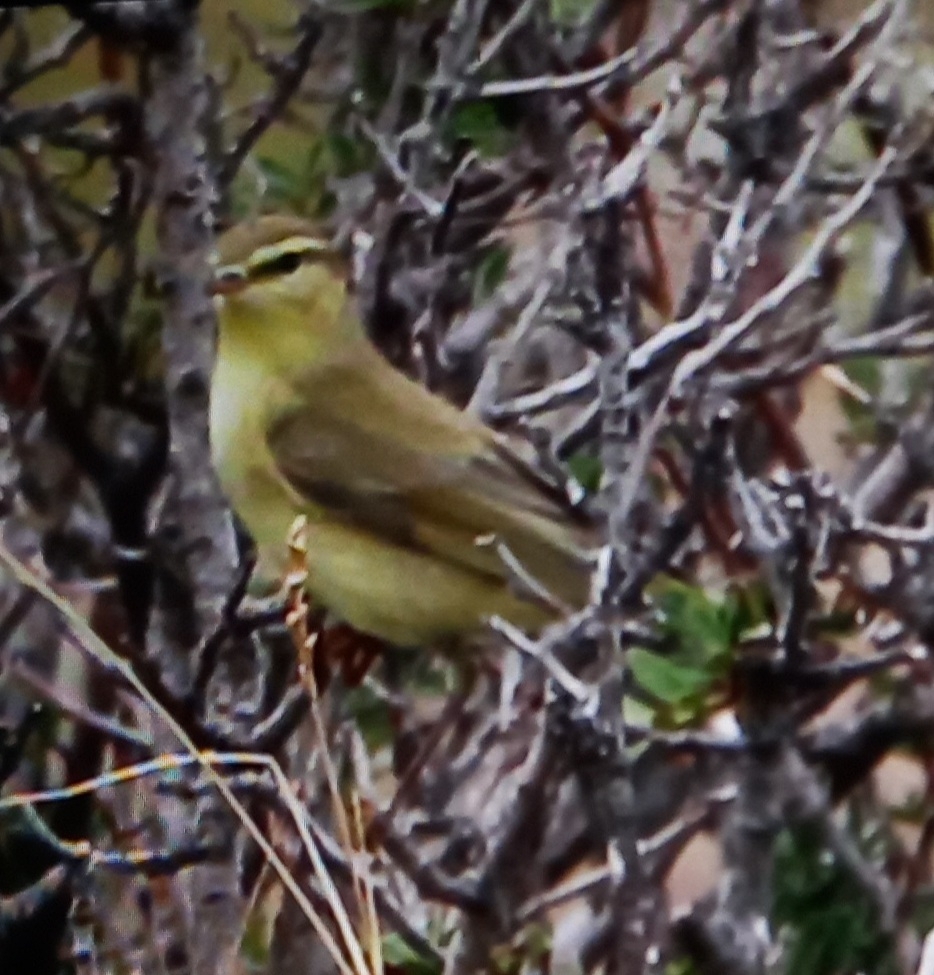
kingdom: Animalia
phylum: Chordata
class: Aves
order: Passeriformes
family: Phylloscopidae
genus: Phylloscopus
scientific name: Phylloscopus trochilus
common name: Willow warbler
